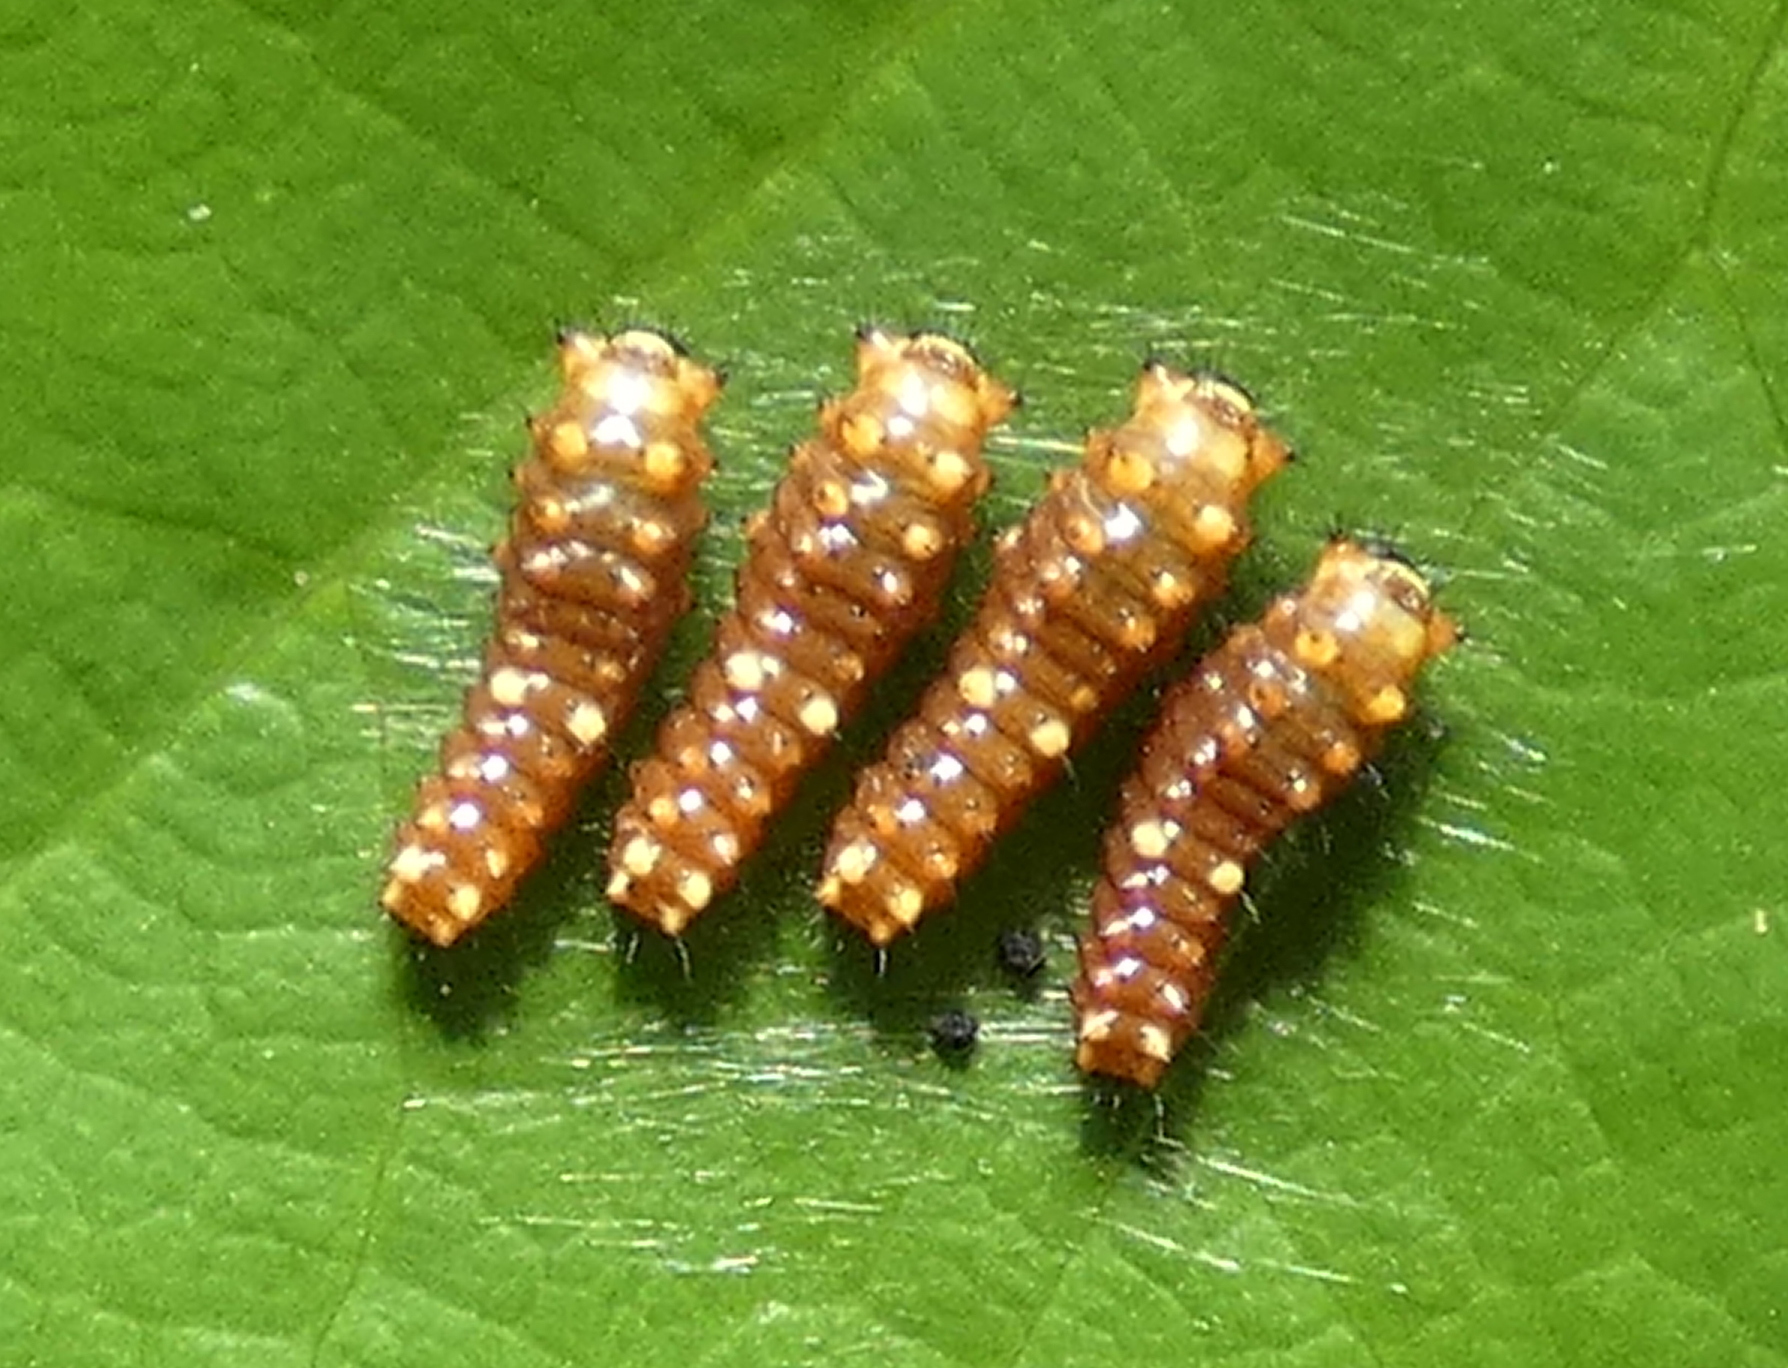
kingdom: Animalia
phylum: Arthropoda
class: Insecta
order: Lepidoptera
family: Papilionidae
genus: Battus
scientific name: Battus polydamas
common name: Polydamas swallowtail
